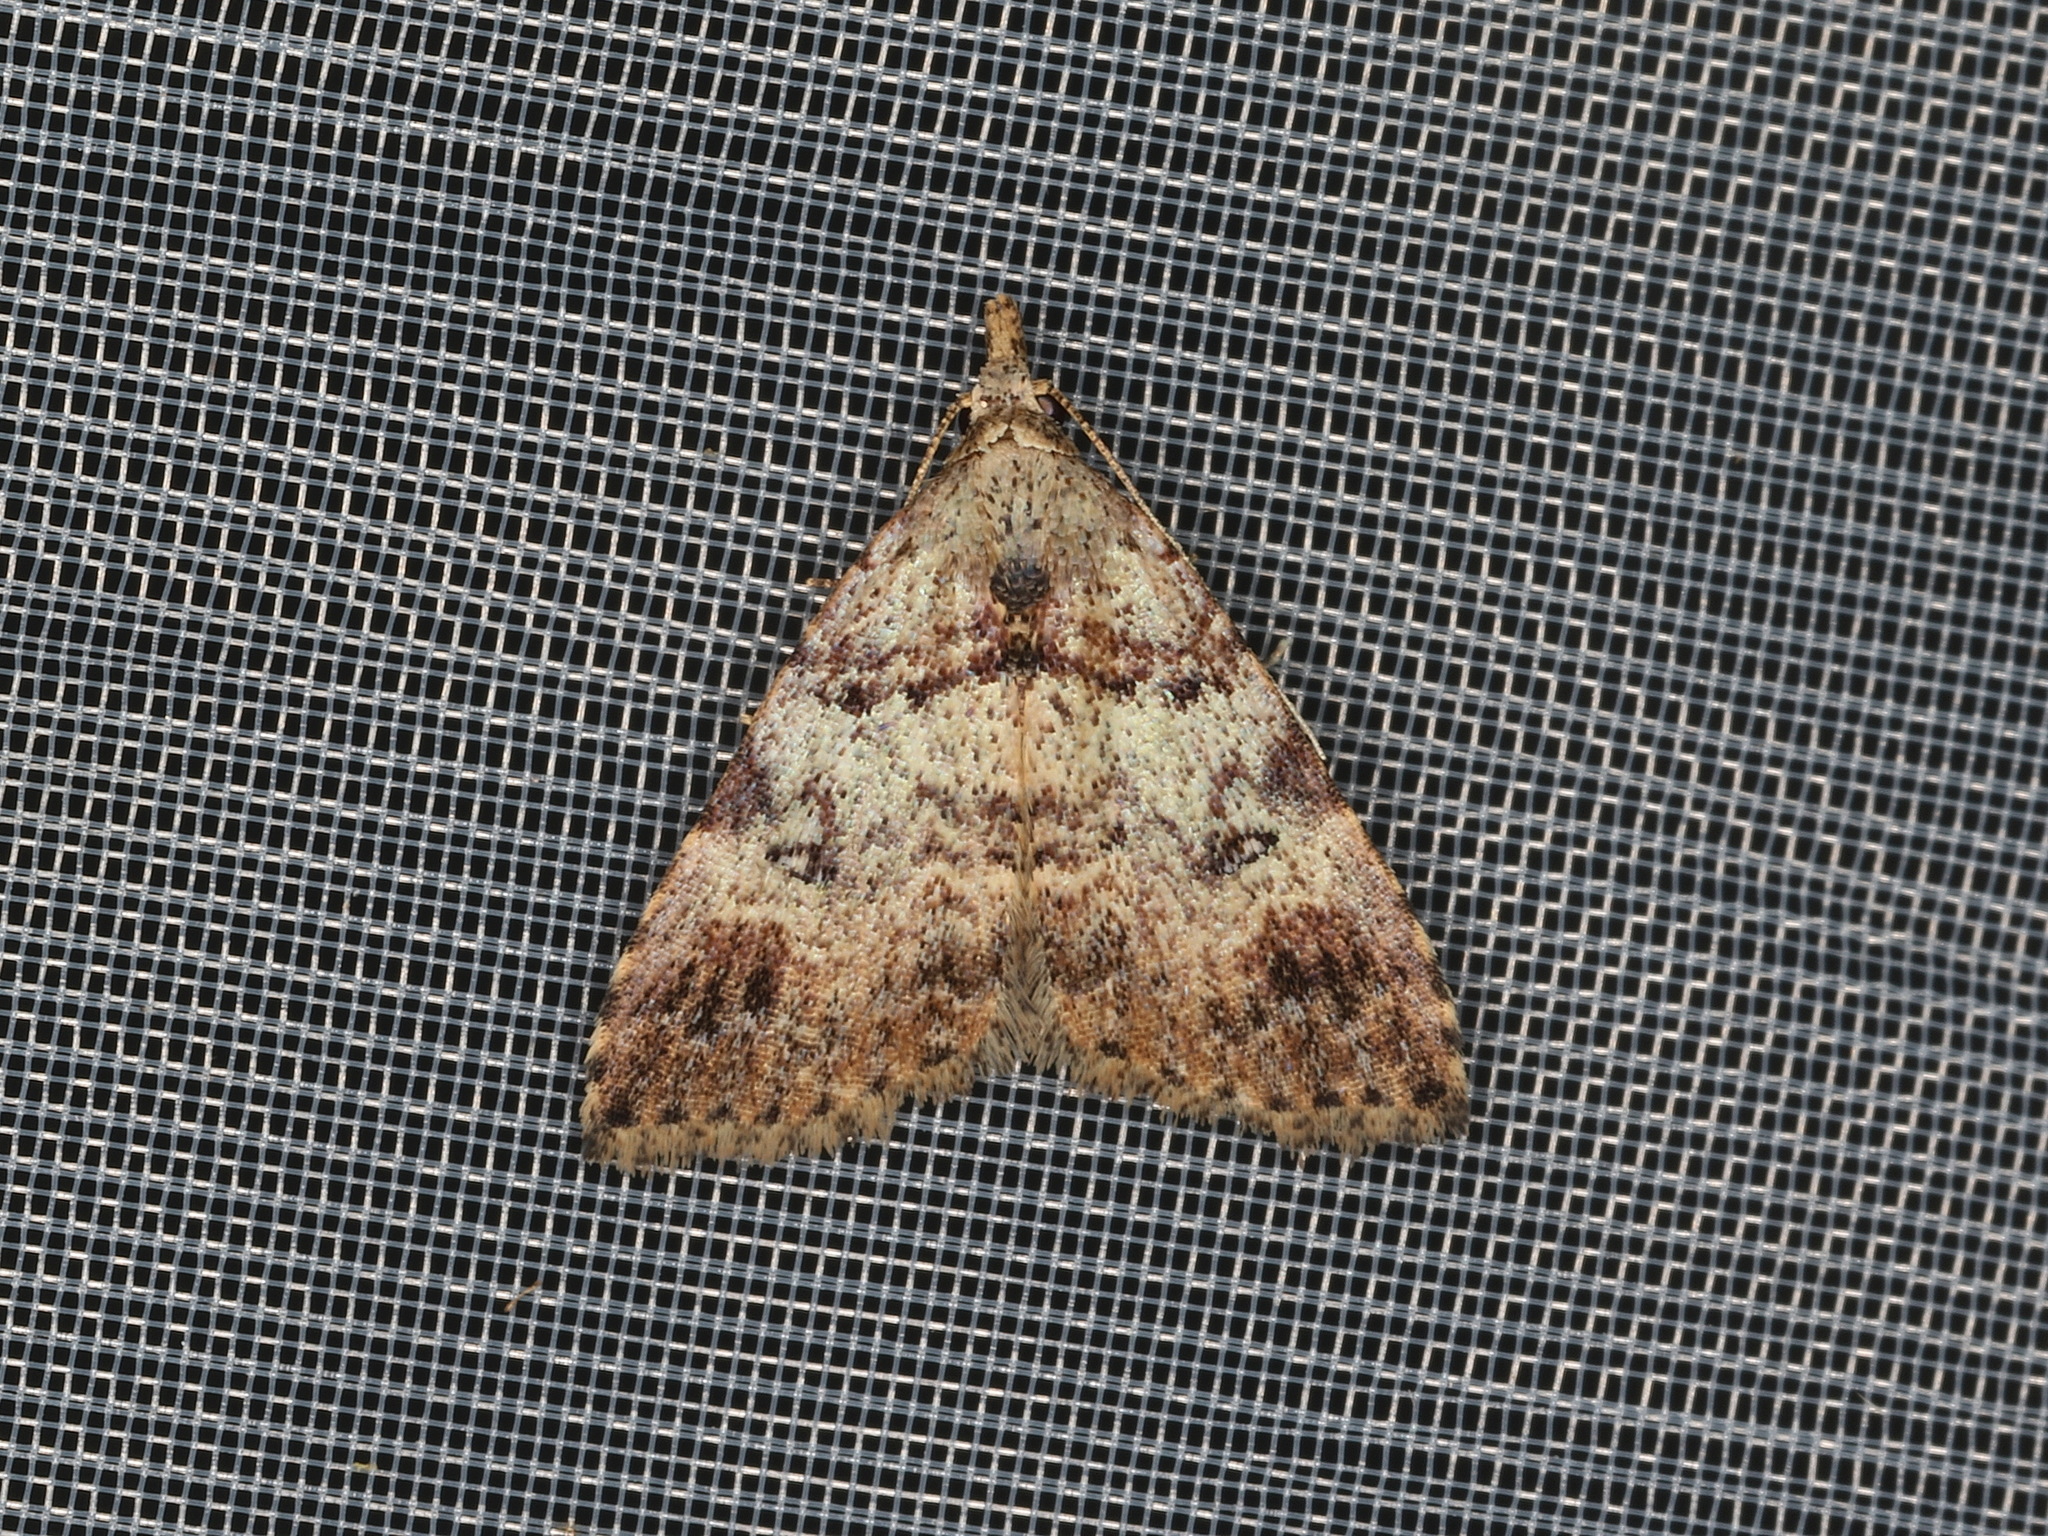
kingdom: Animalia
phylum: Arthropoda
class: Insecta
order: Lepidoptera
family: Erebidae
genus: Alapadna
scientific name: Alapadna pauropis
